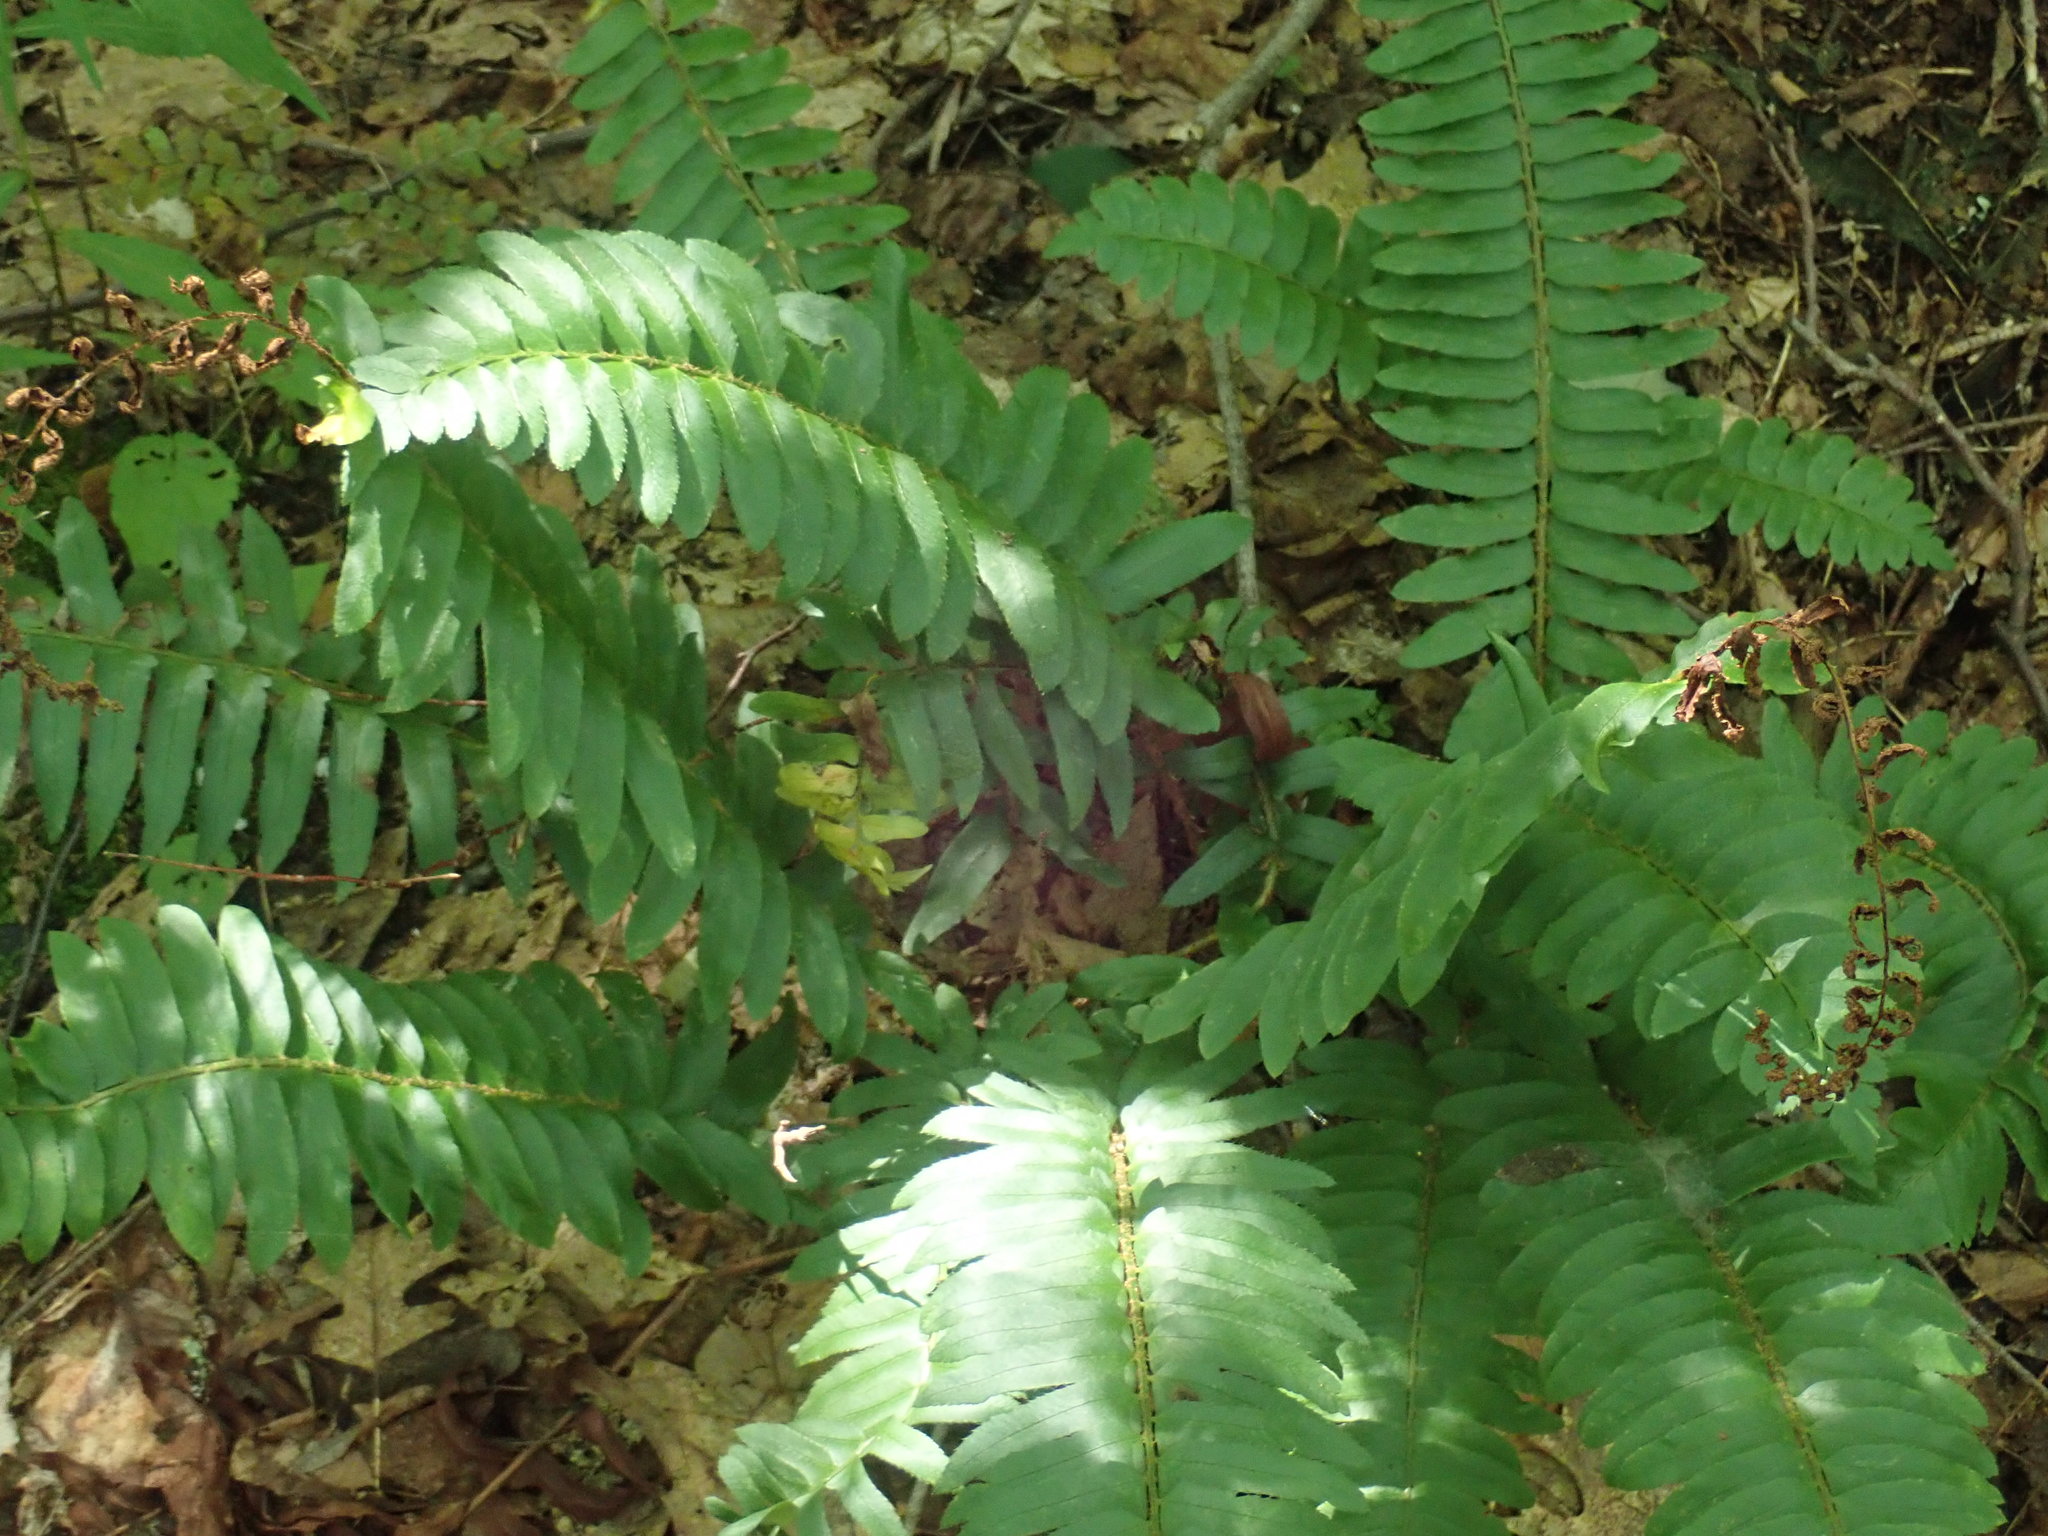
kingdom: Plantae
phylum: Tracheophyta
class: Polypodiopsida
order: Polypodiales
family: Dryopteridaceae
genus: Polystichum
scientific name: Polystichum acrostichoides
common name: Christmas fern
